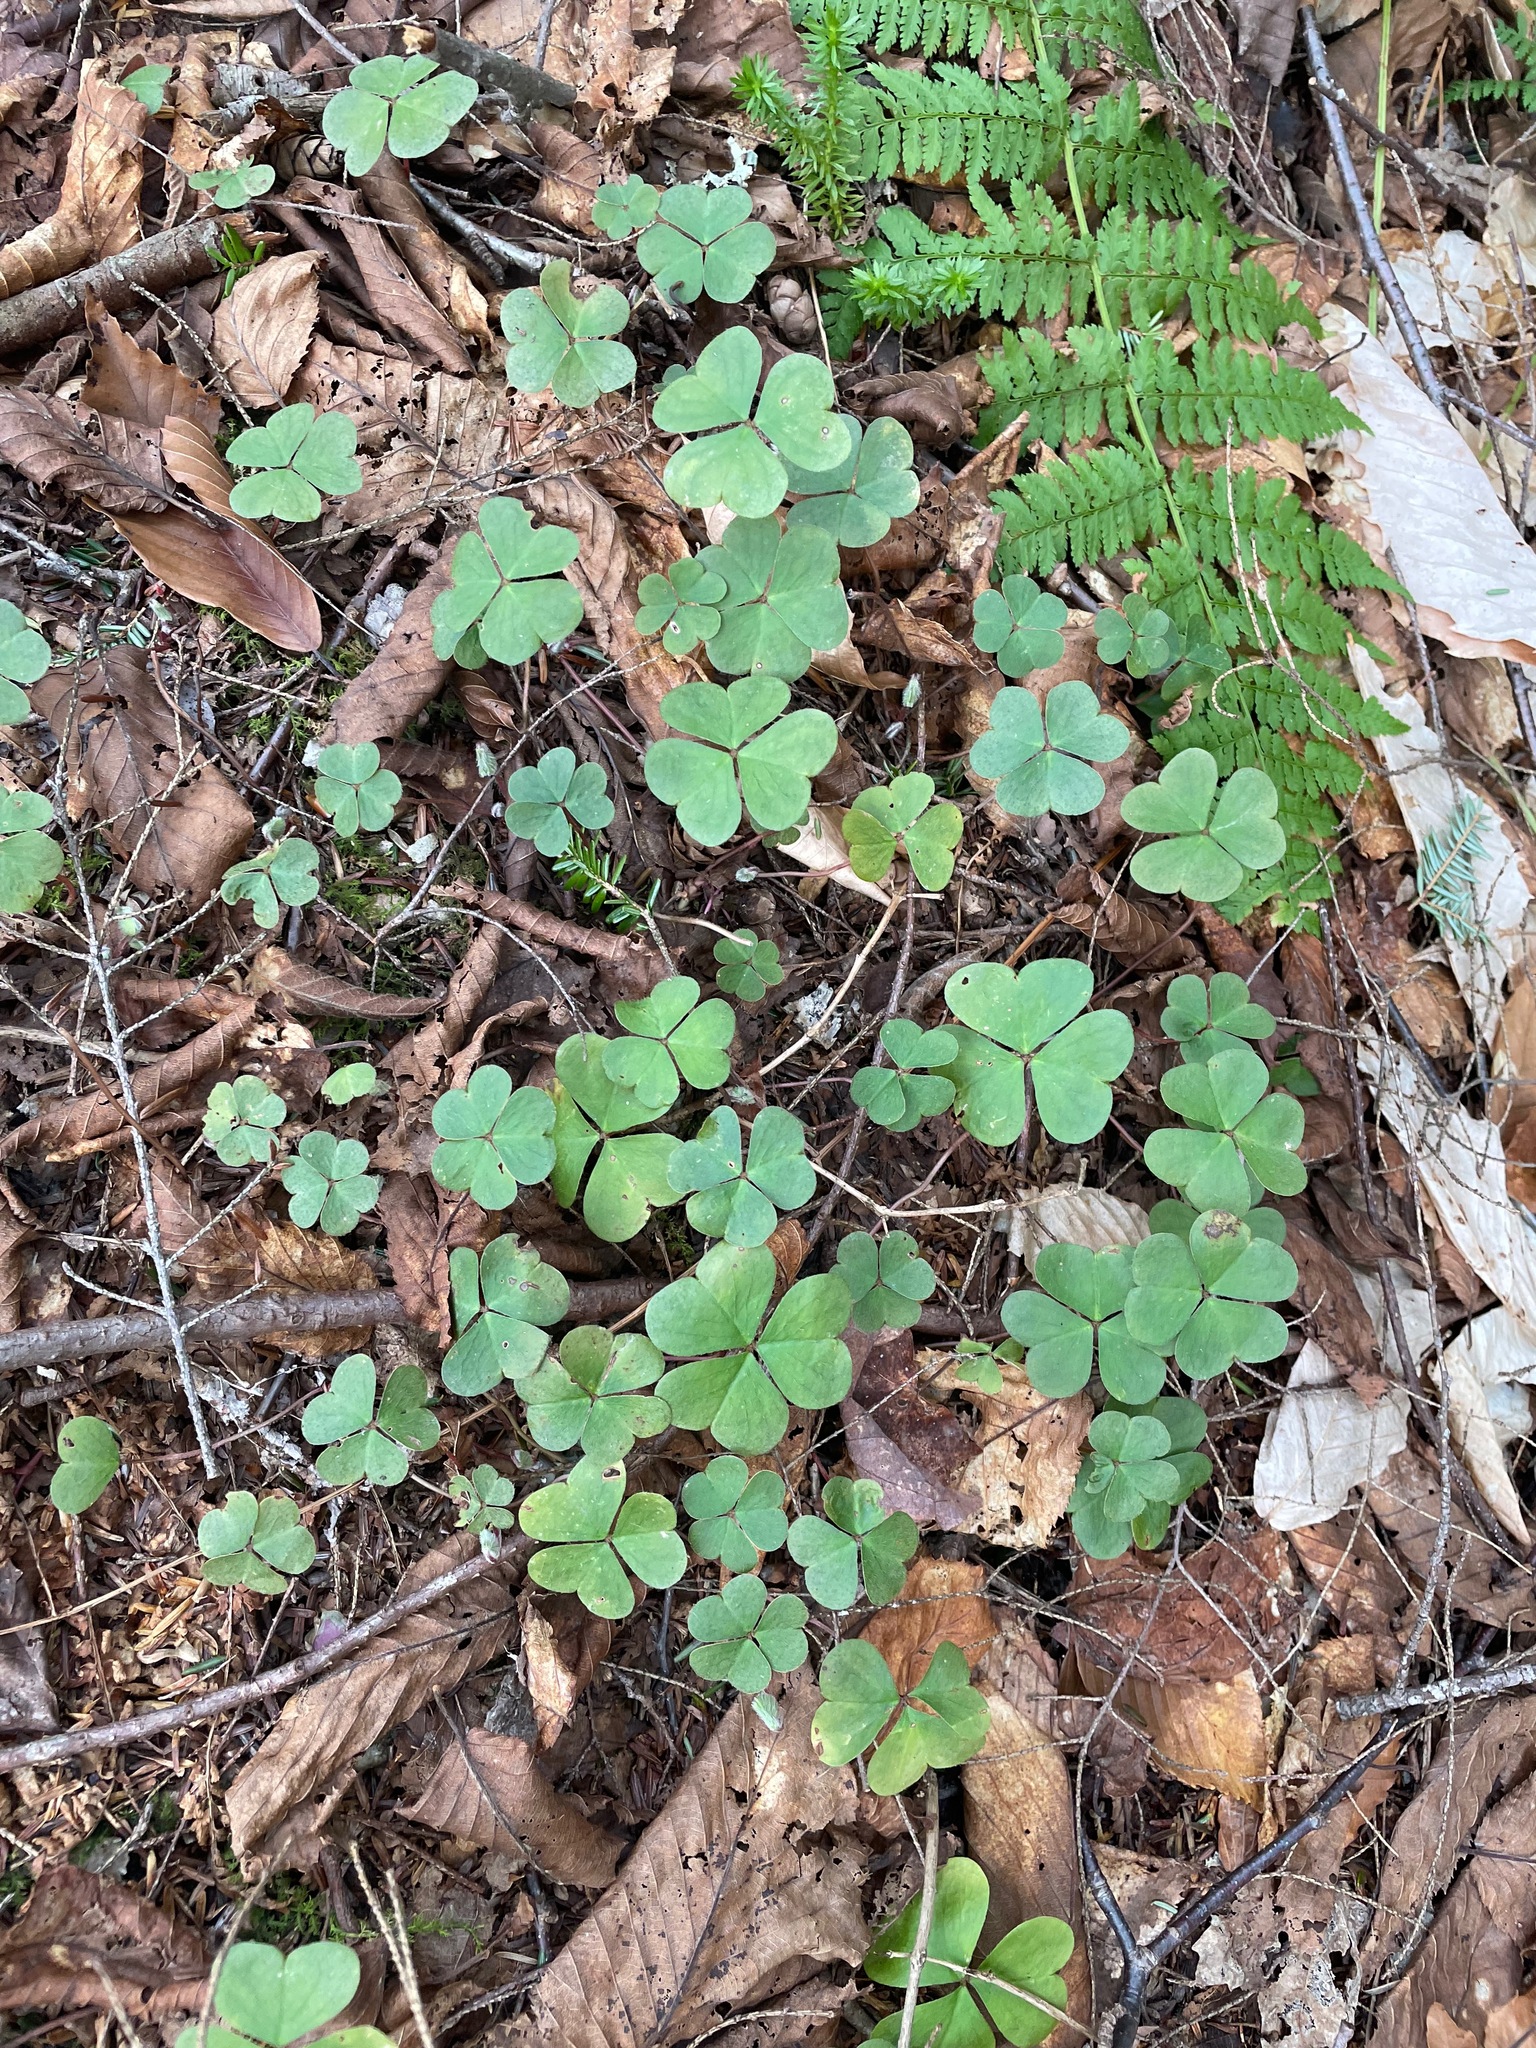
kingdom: Plantae
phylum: Tracheophyta
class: Magnoliopsida
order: Oxalidales
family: Oxalidaceae
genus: Oxalis
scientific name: Oxalis montana
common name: American wood-sorrel
